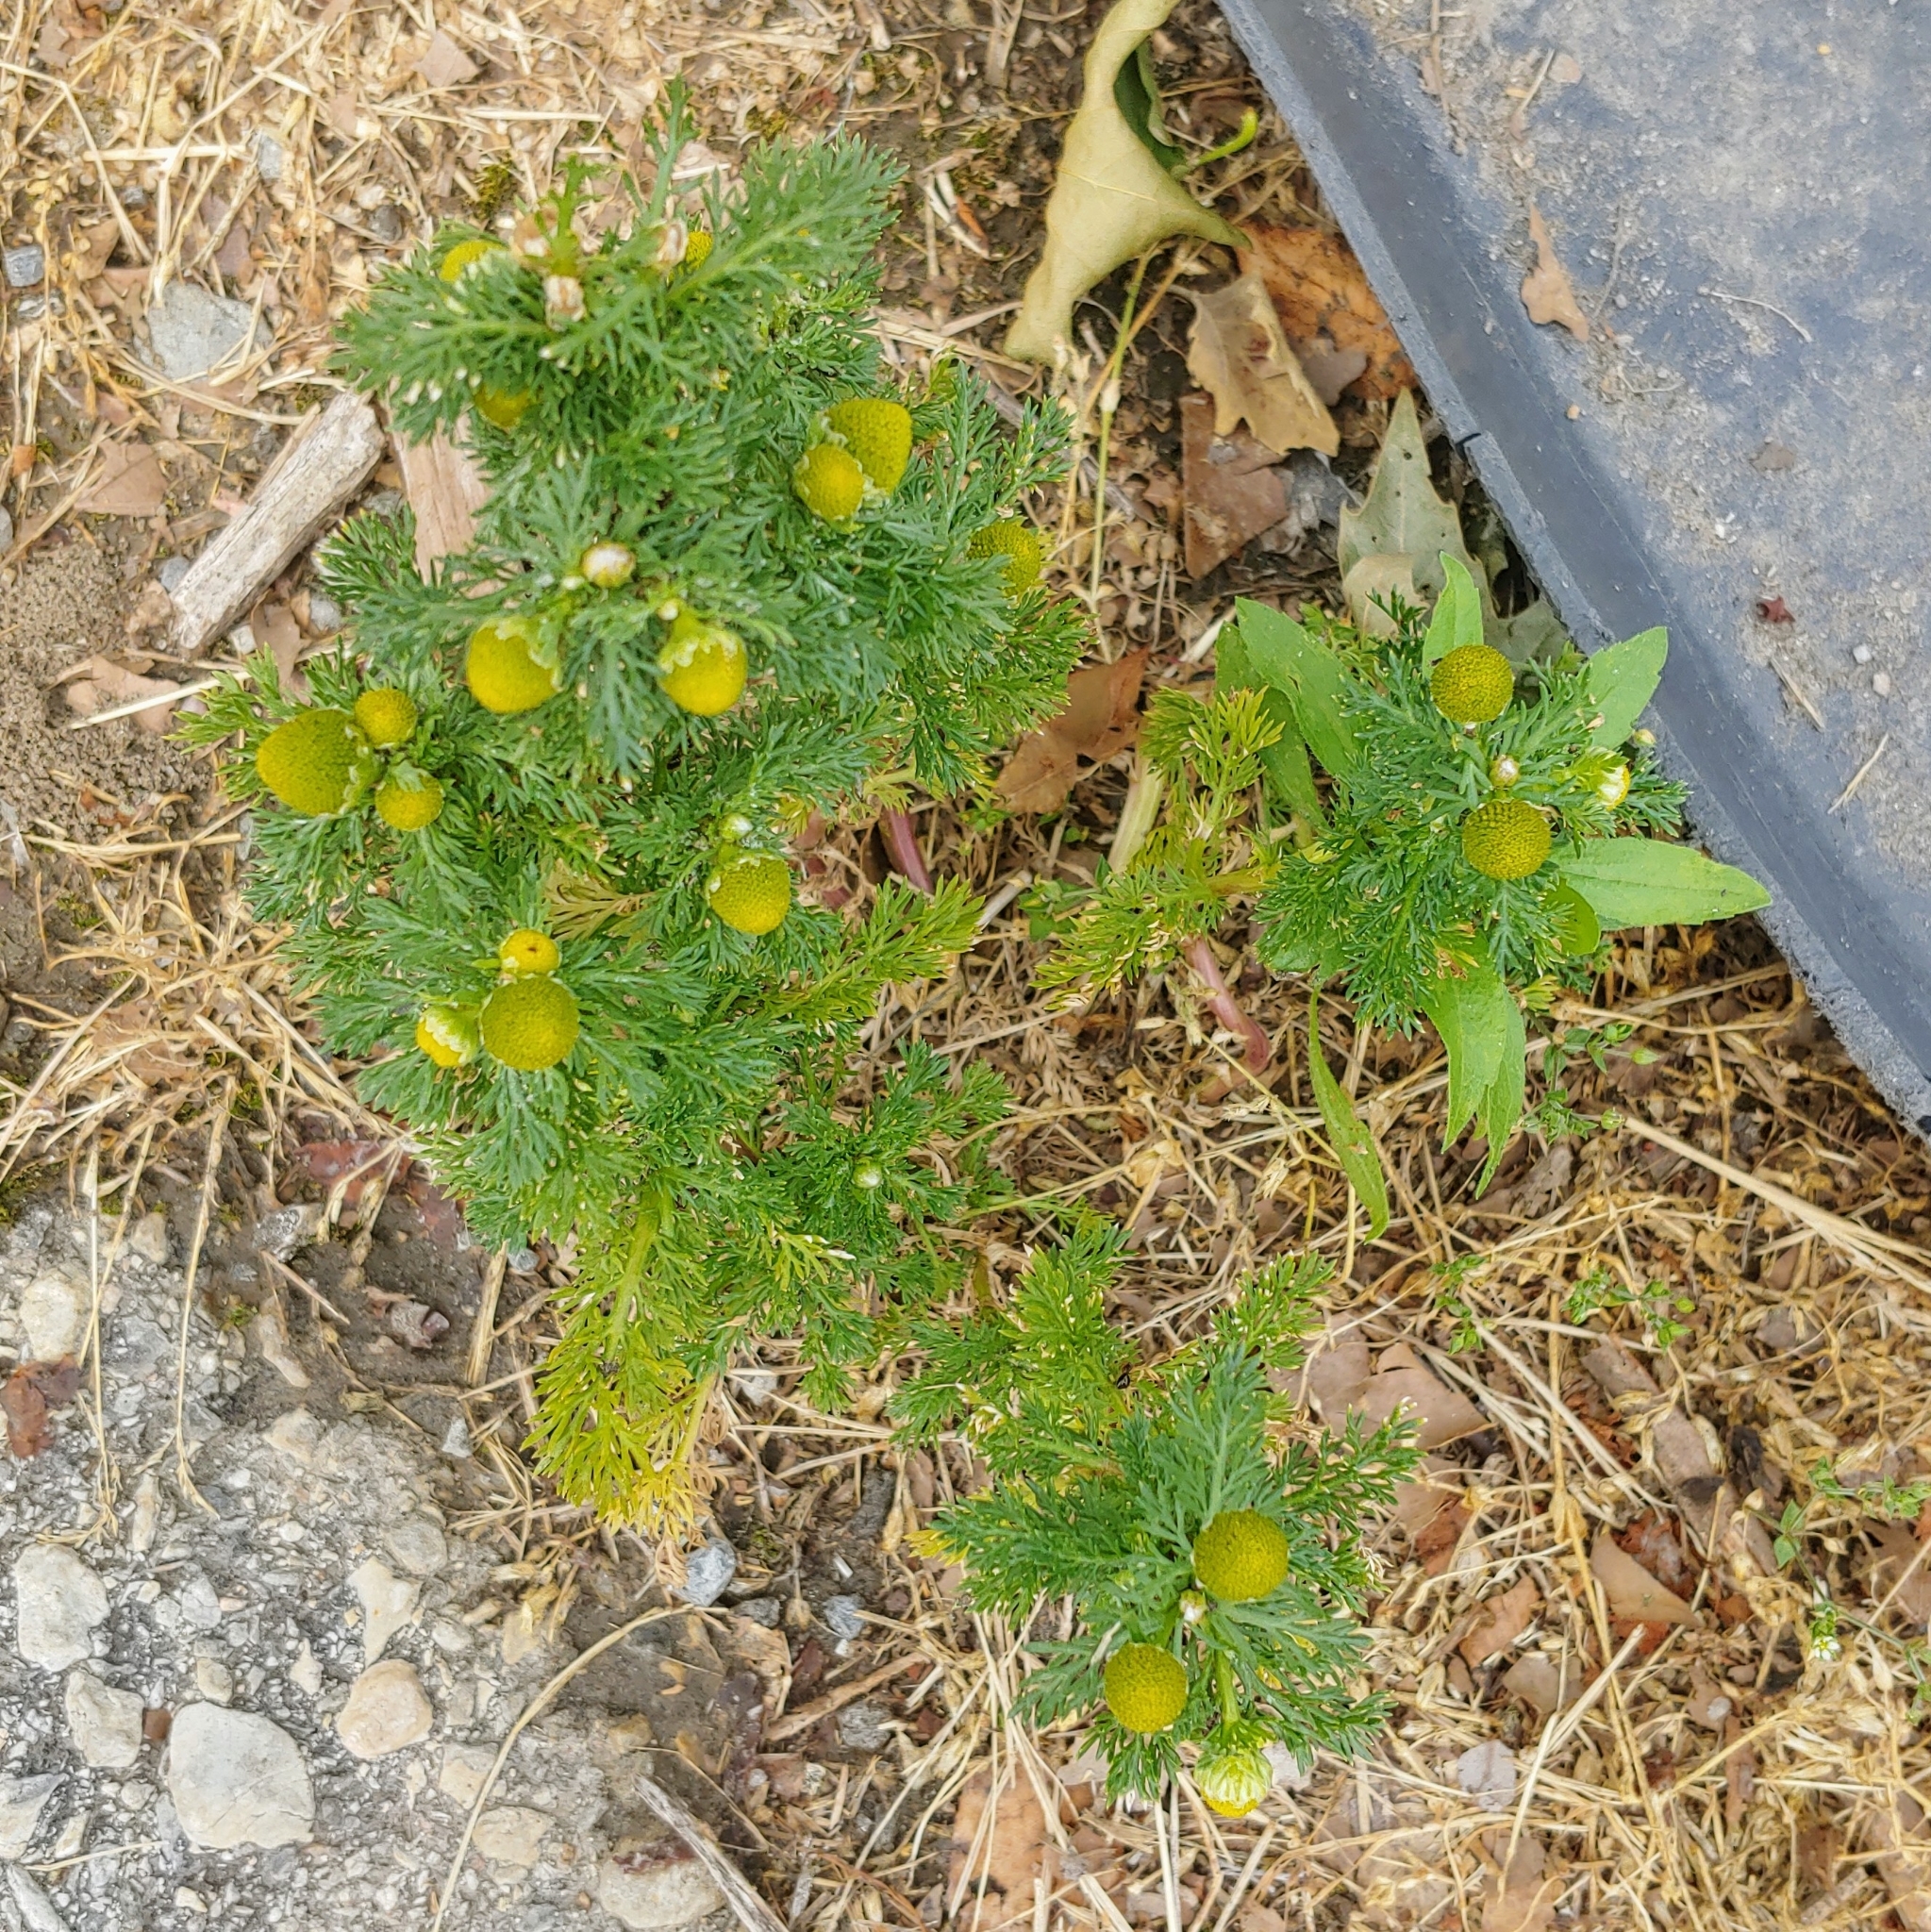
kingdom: Plantae
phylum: Tracheophyta
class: Magnoliopsida
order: Asterales
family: Asteraceae
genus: Matricaria
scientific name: Matricaria discoidea
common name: Disc mayweed
